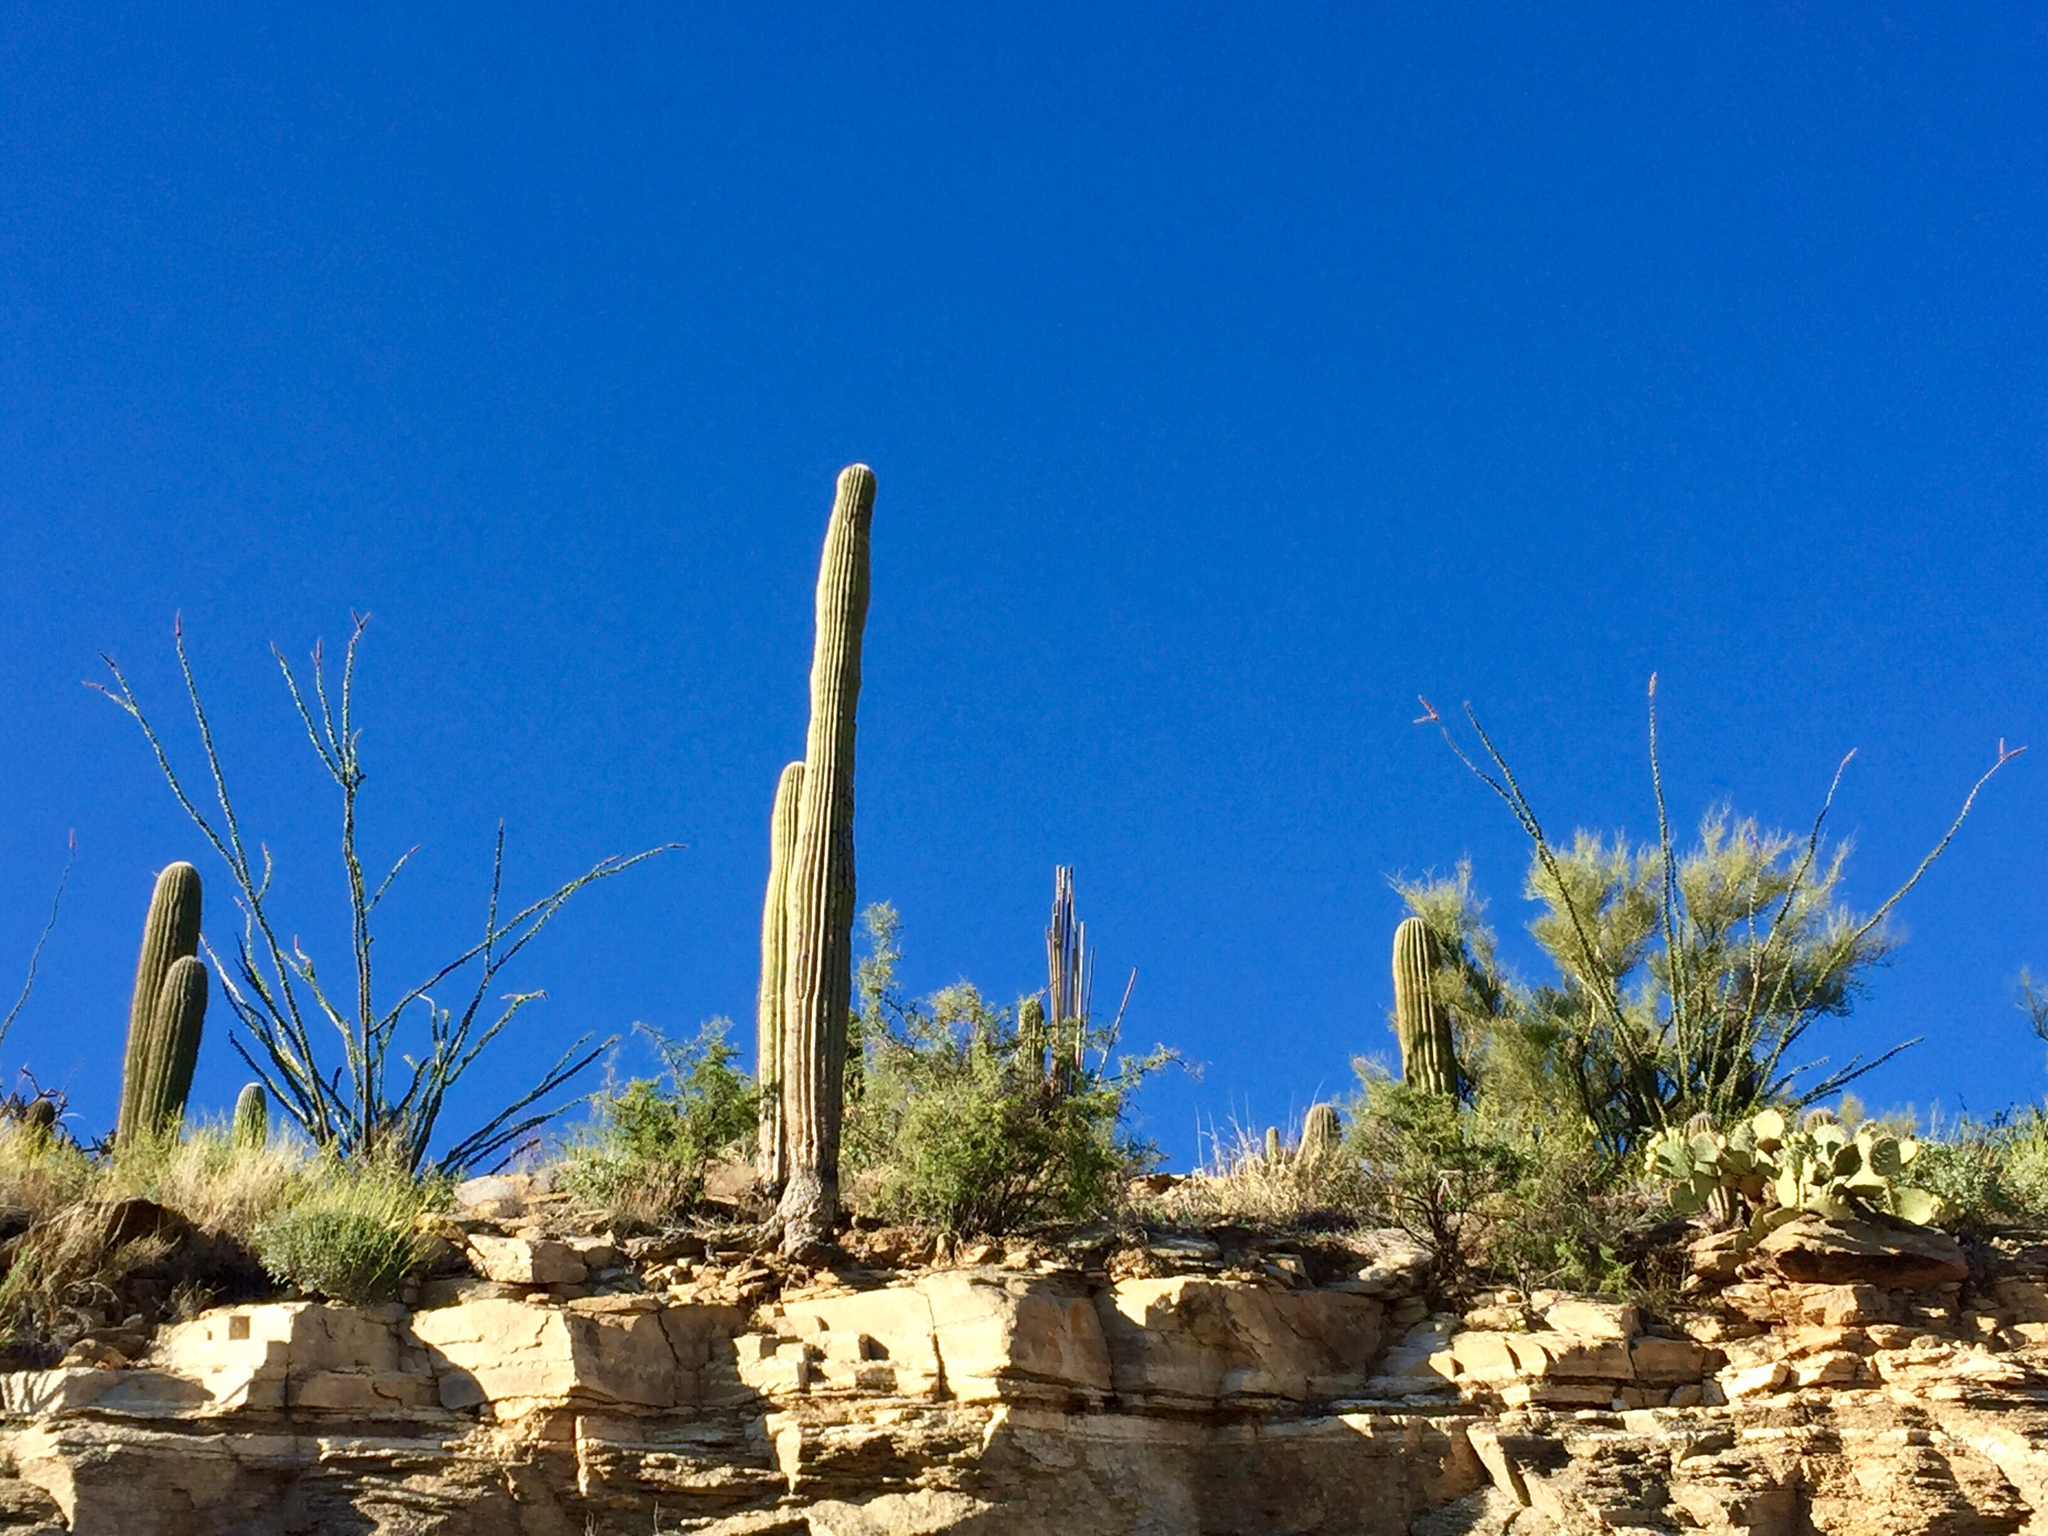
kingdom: Plantae
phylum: Tracheophyta
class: Magnoliopsida
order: Ericales
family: Fouquieriaceae
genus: Fouquieria
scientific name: Fouquieria splendens
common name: Vine-cactus
